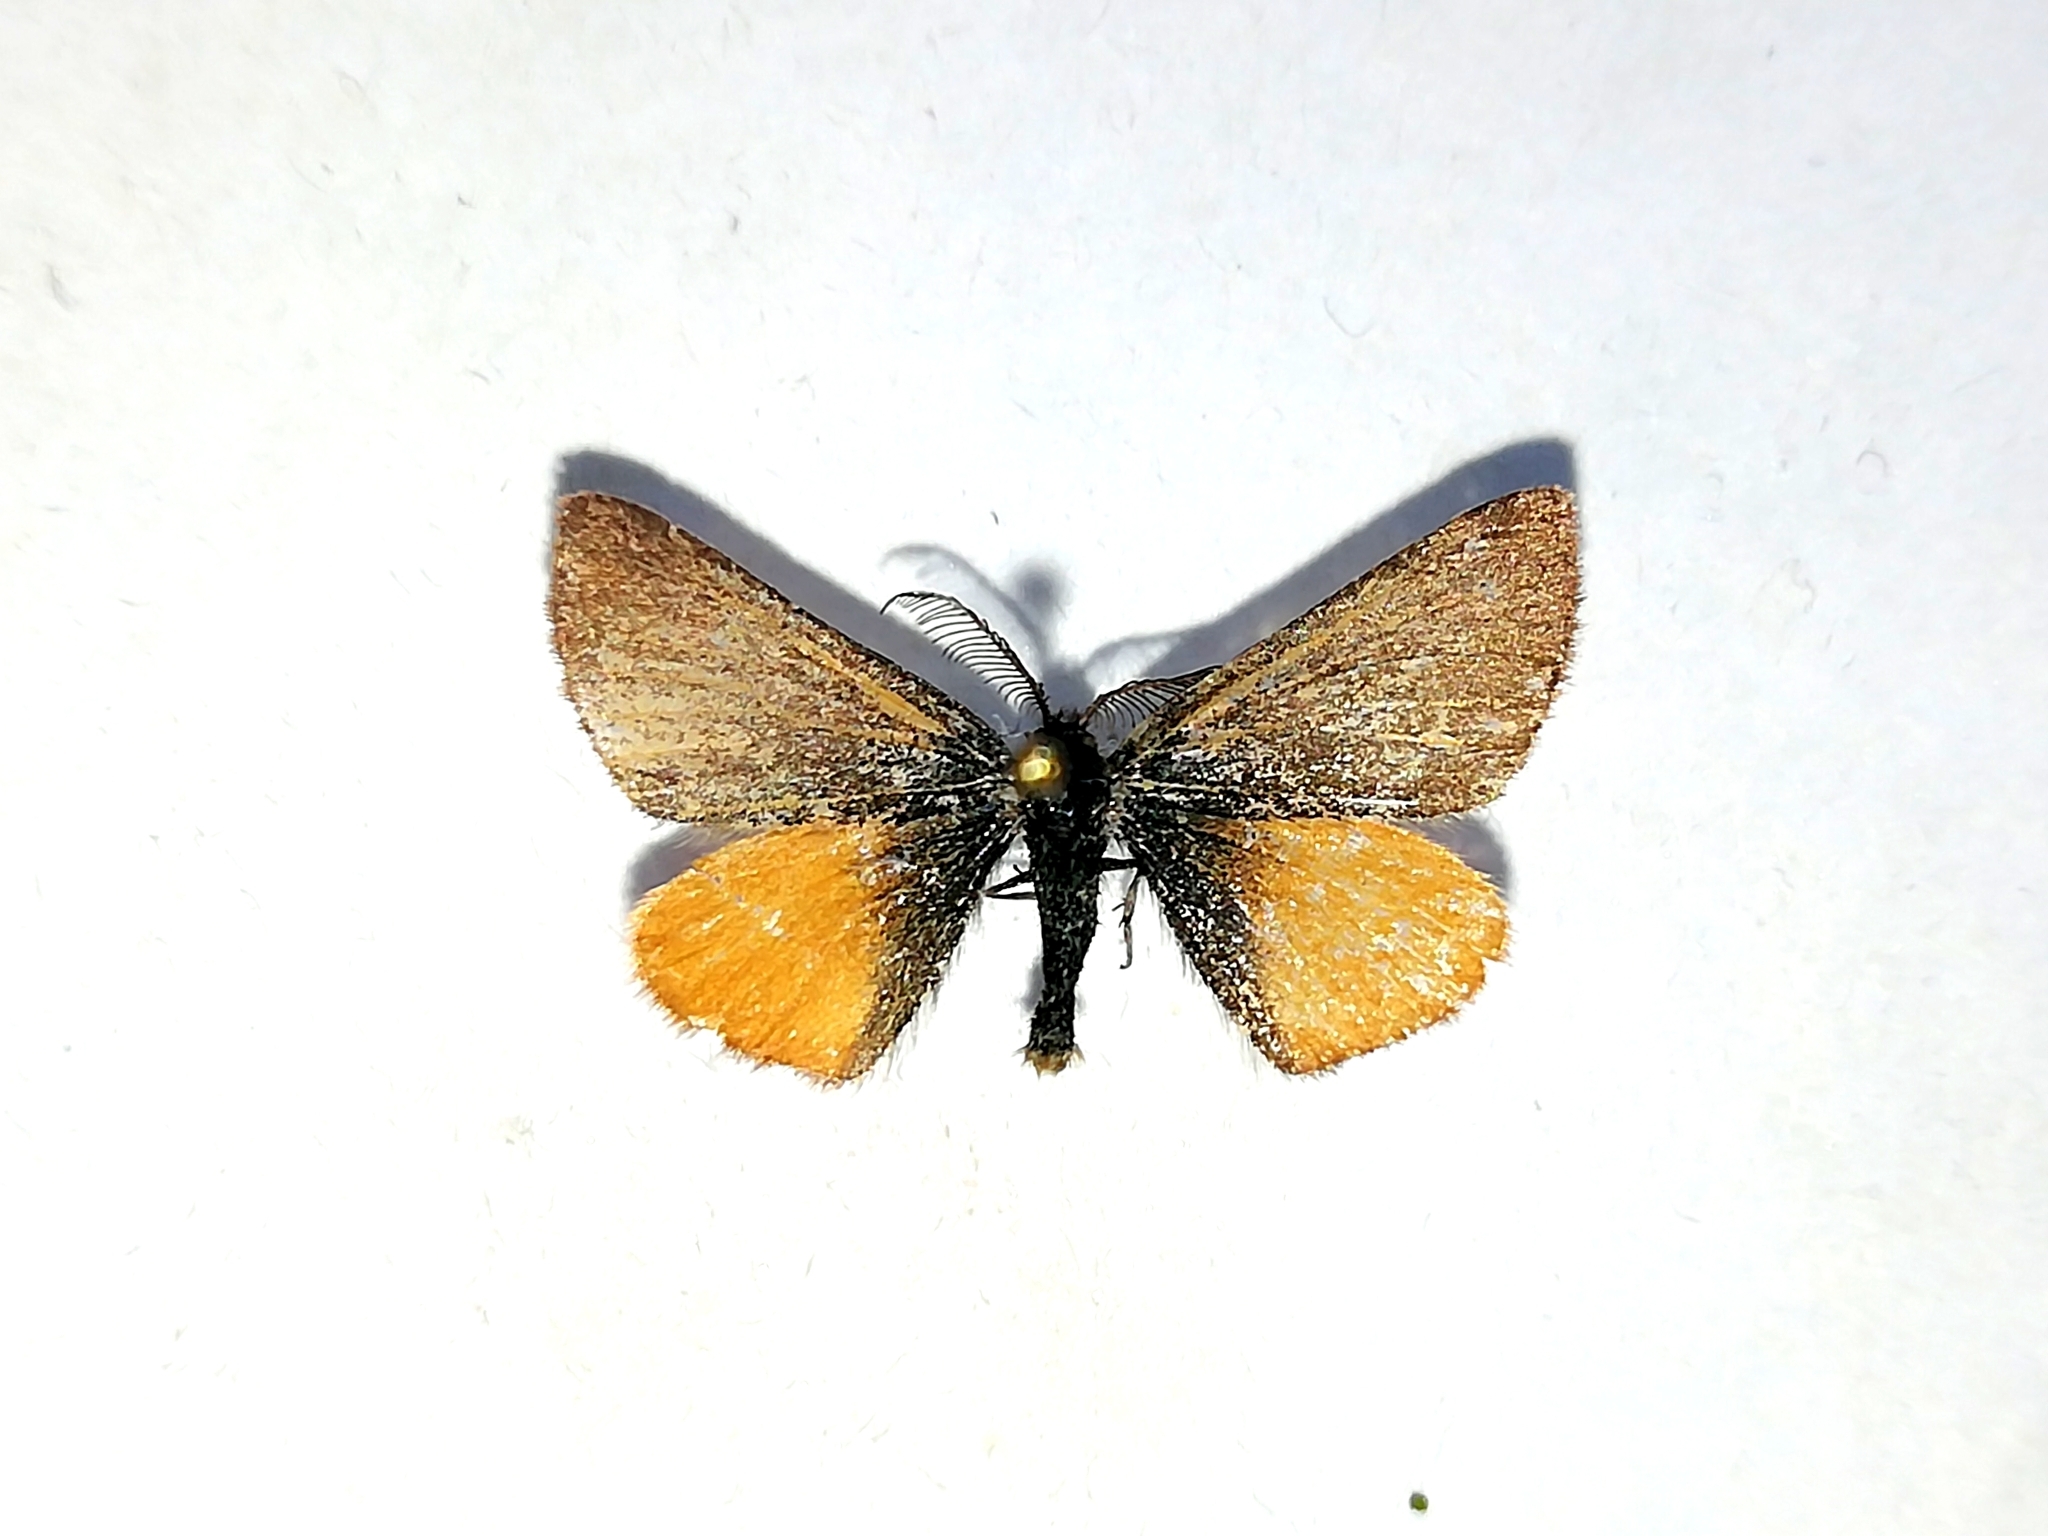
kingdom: Animalia
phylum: Arthropoda
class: Insecta
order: Lepidoptera
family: Geometridae
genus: Lythria
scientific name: Lythria cruentaria
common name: Purple-barred yellow
